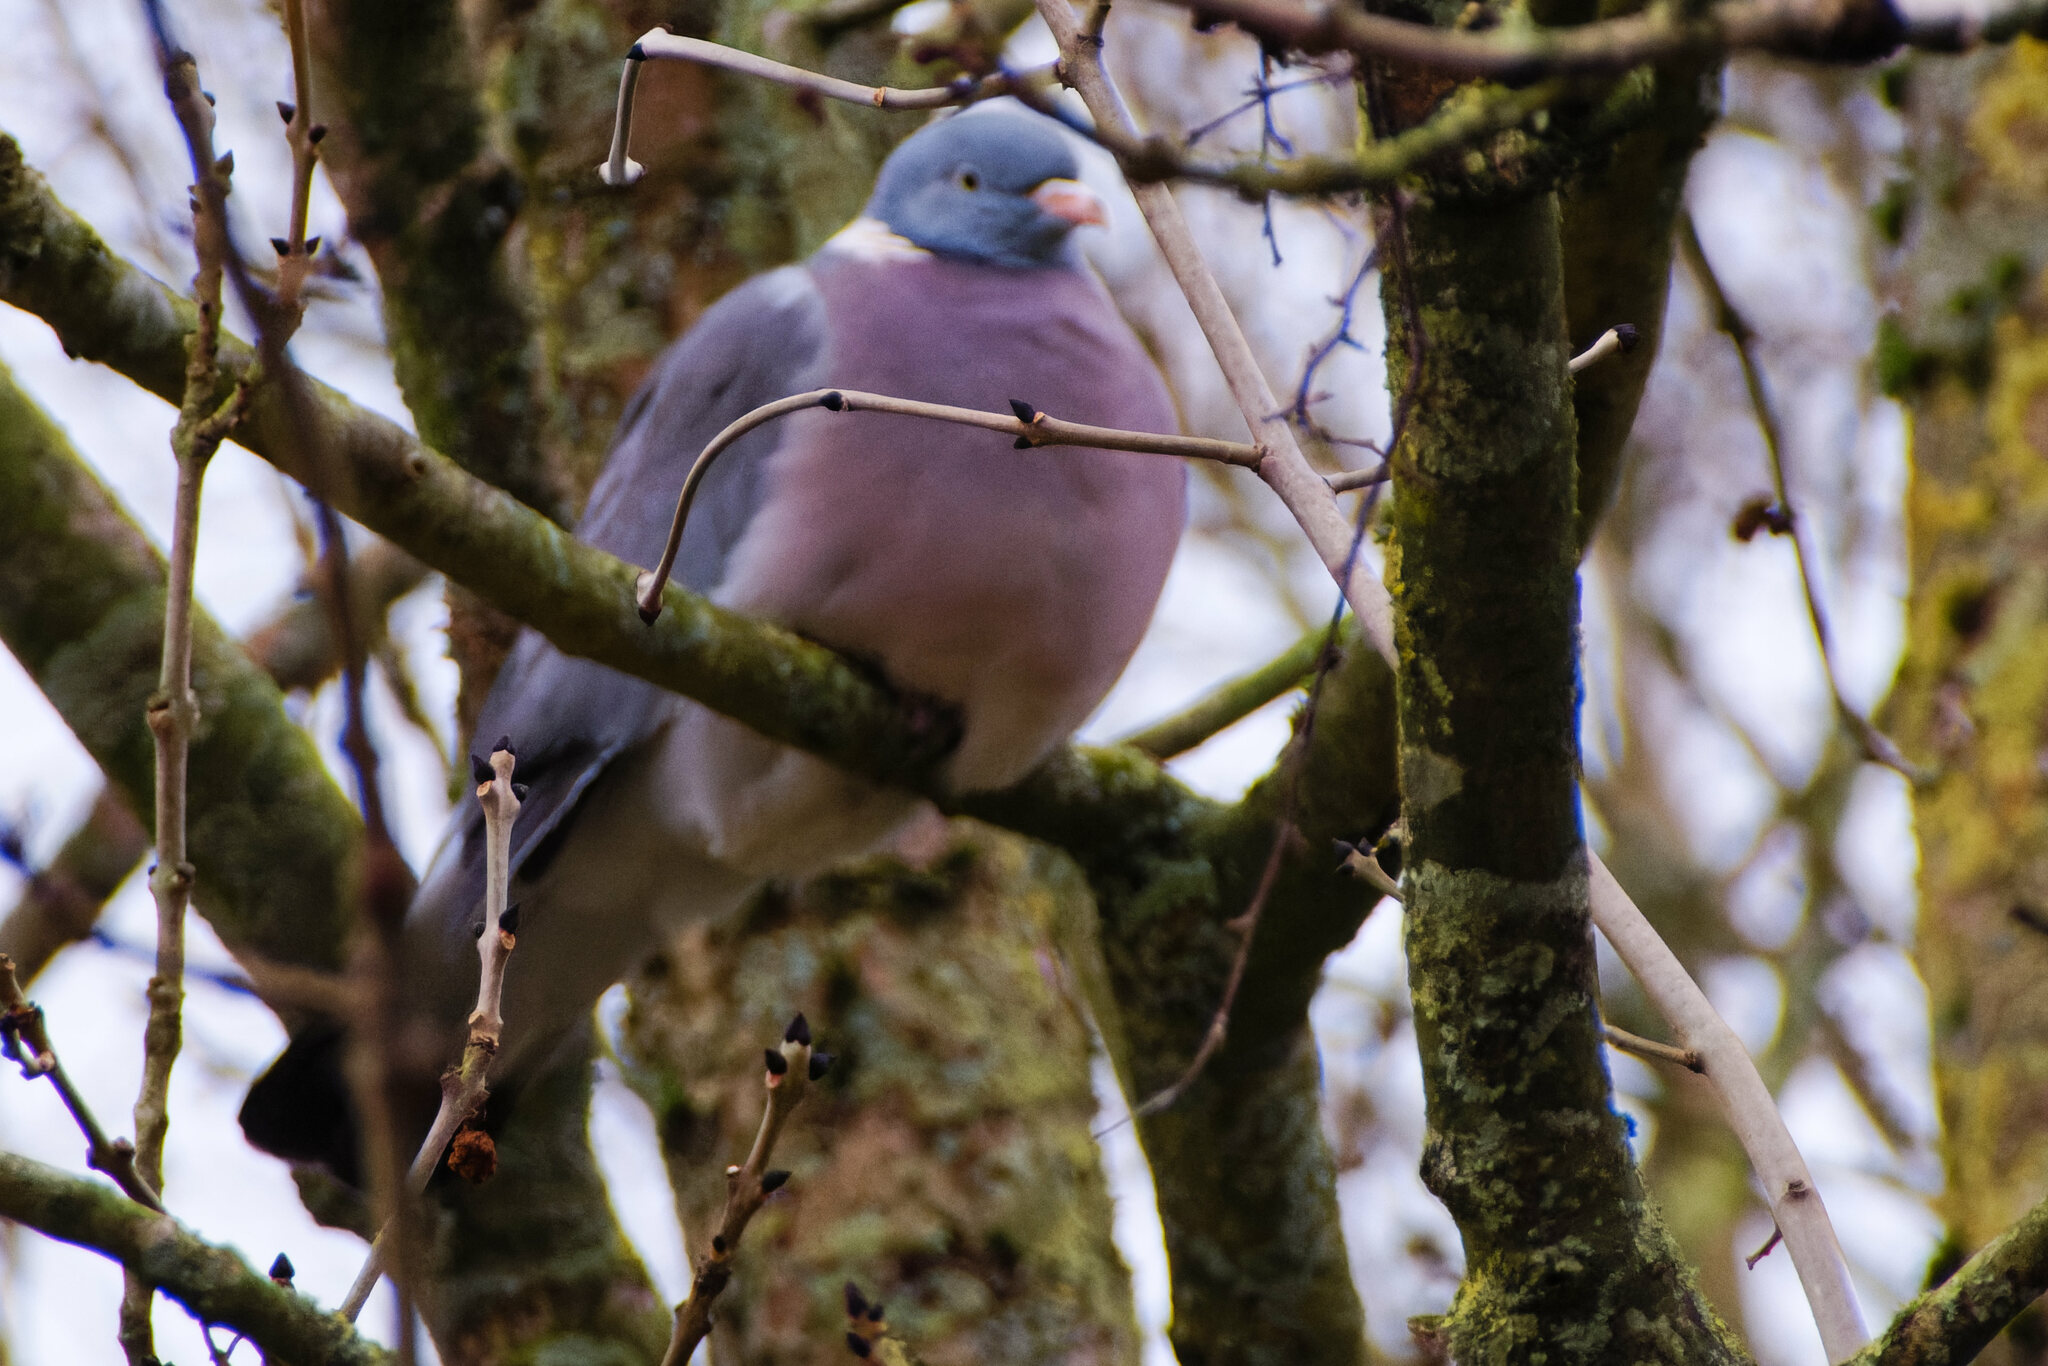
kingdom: Animalia
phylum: Chordata
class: Aves
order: Columbiformes
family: Columbidae
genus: Columba
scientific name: Columba palumbus
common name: Common wood pigeon
